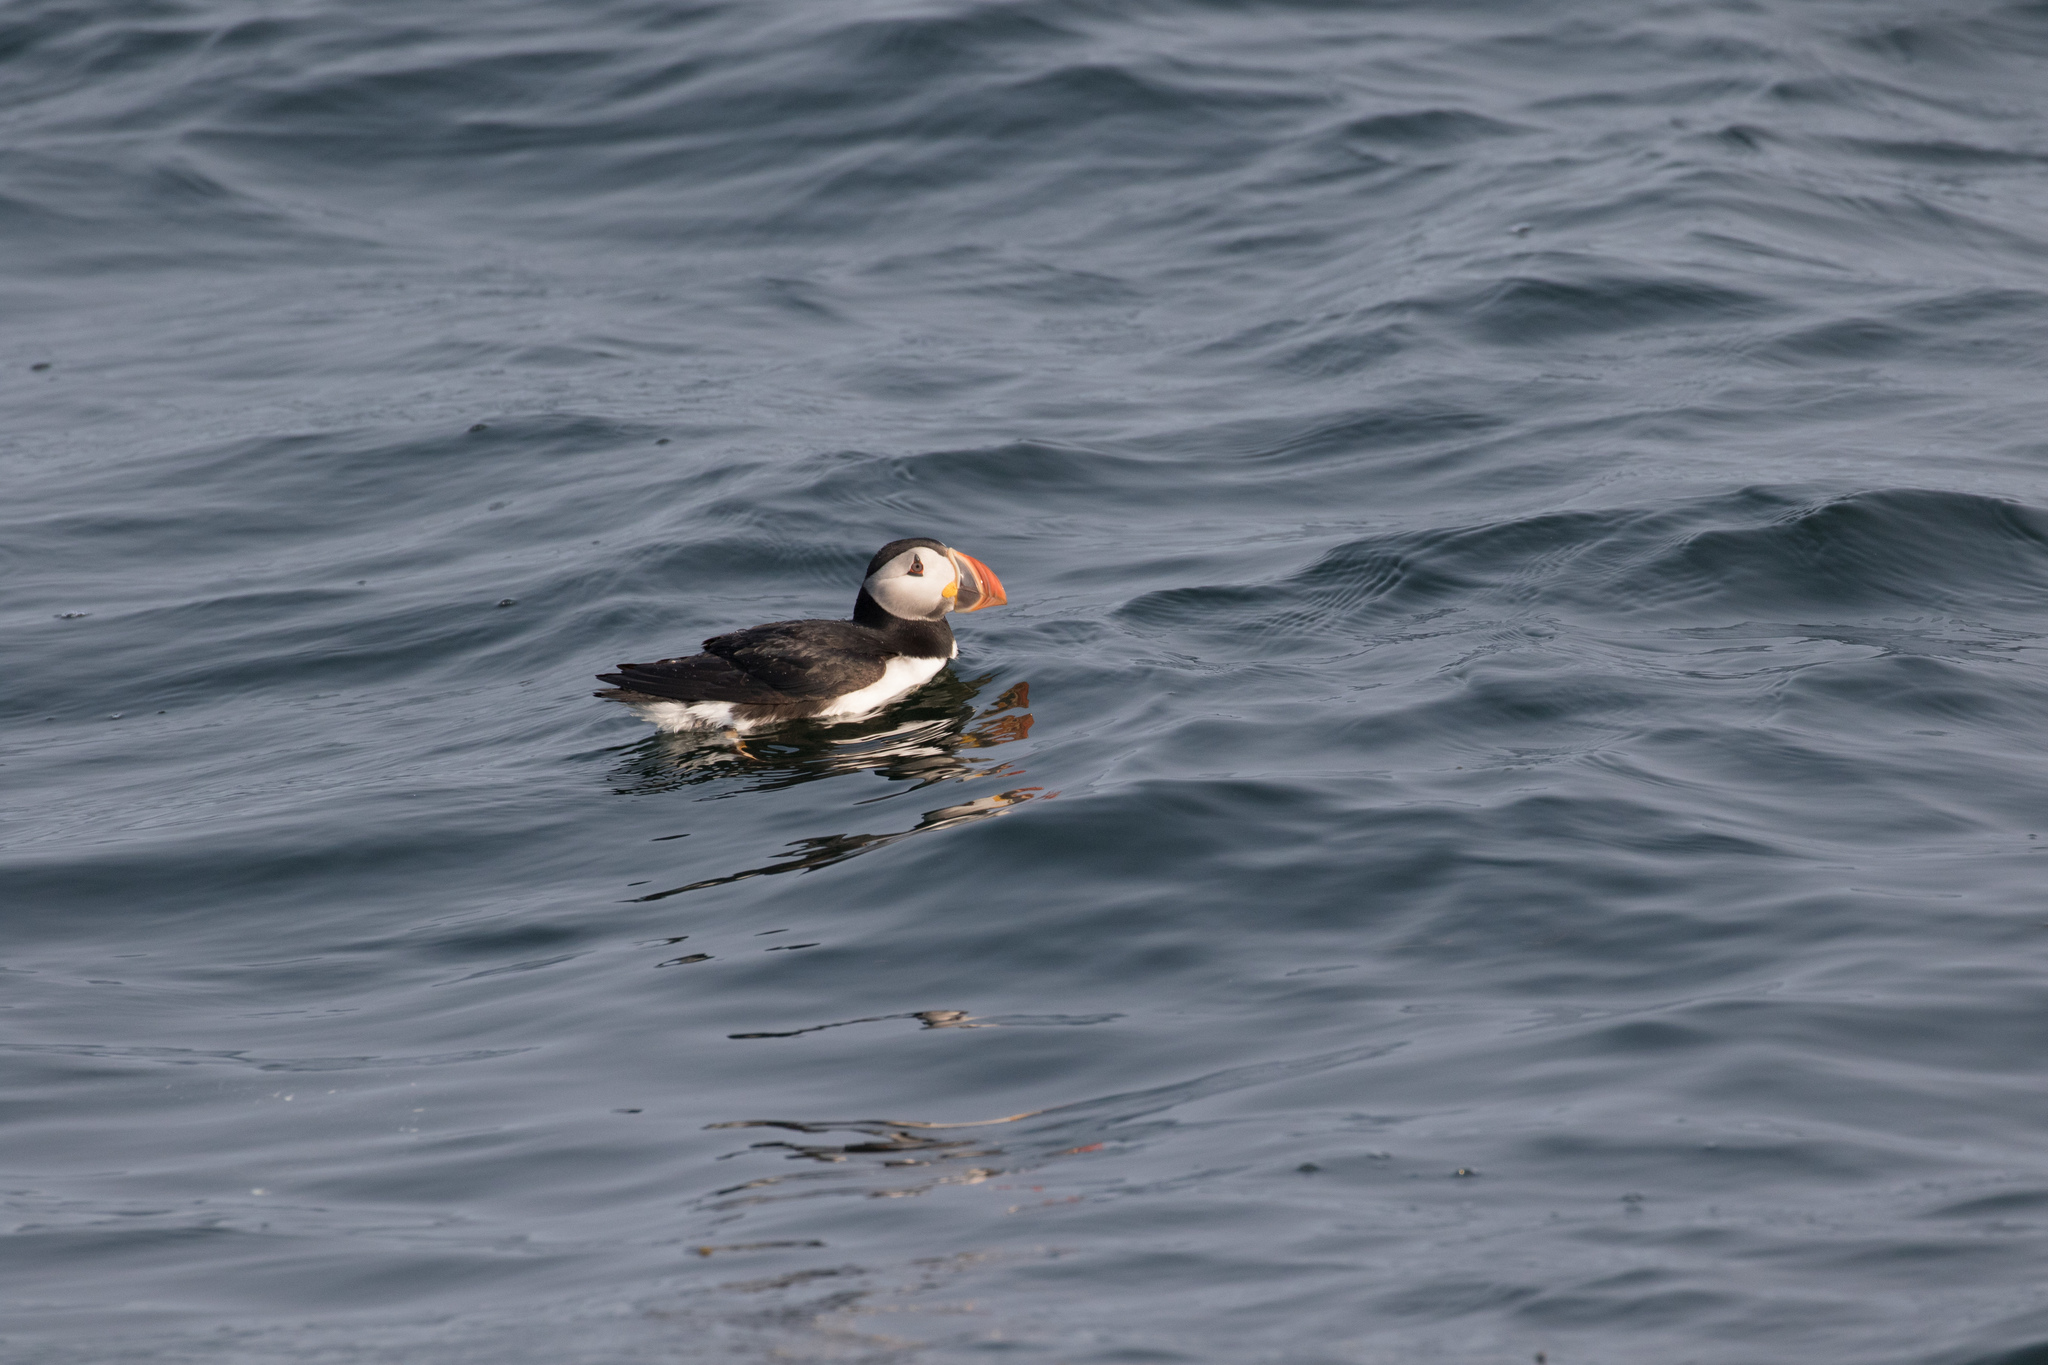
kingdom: Animalia
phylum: Chordata
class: Aves
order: Charadriiformes
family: Alcidae
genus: Fratercula
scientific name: Fratercula arctica
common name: Atlantic puffin
